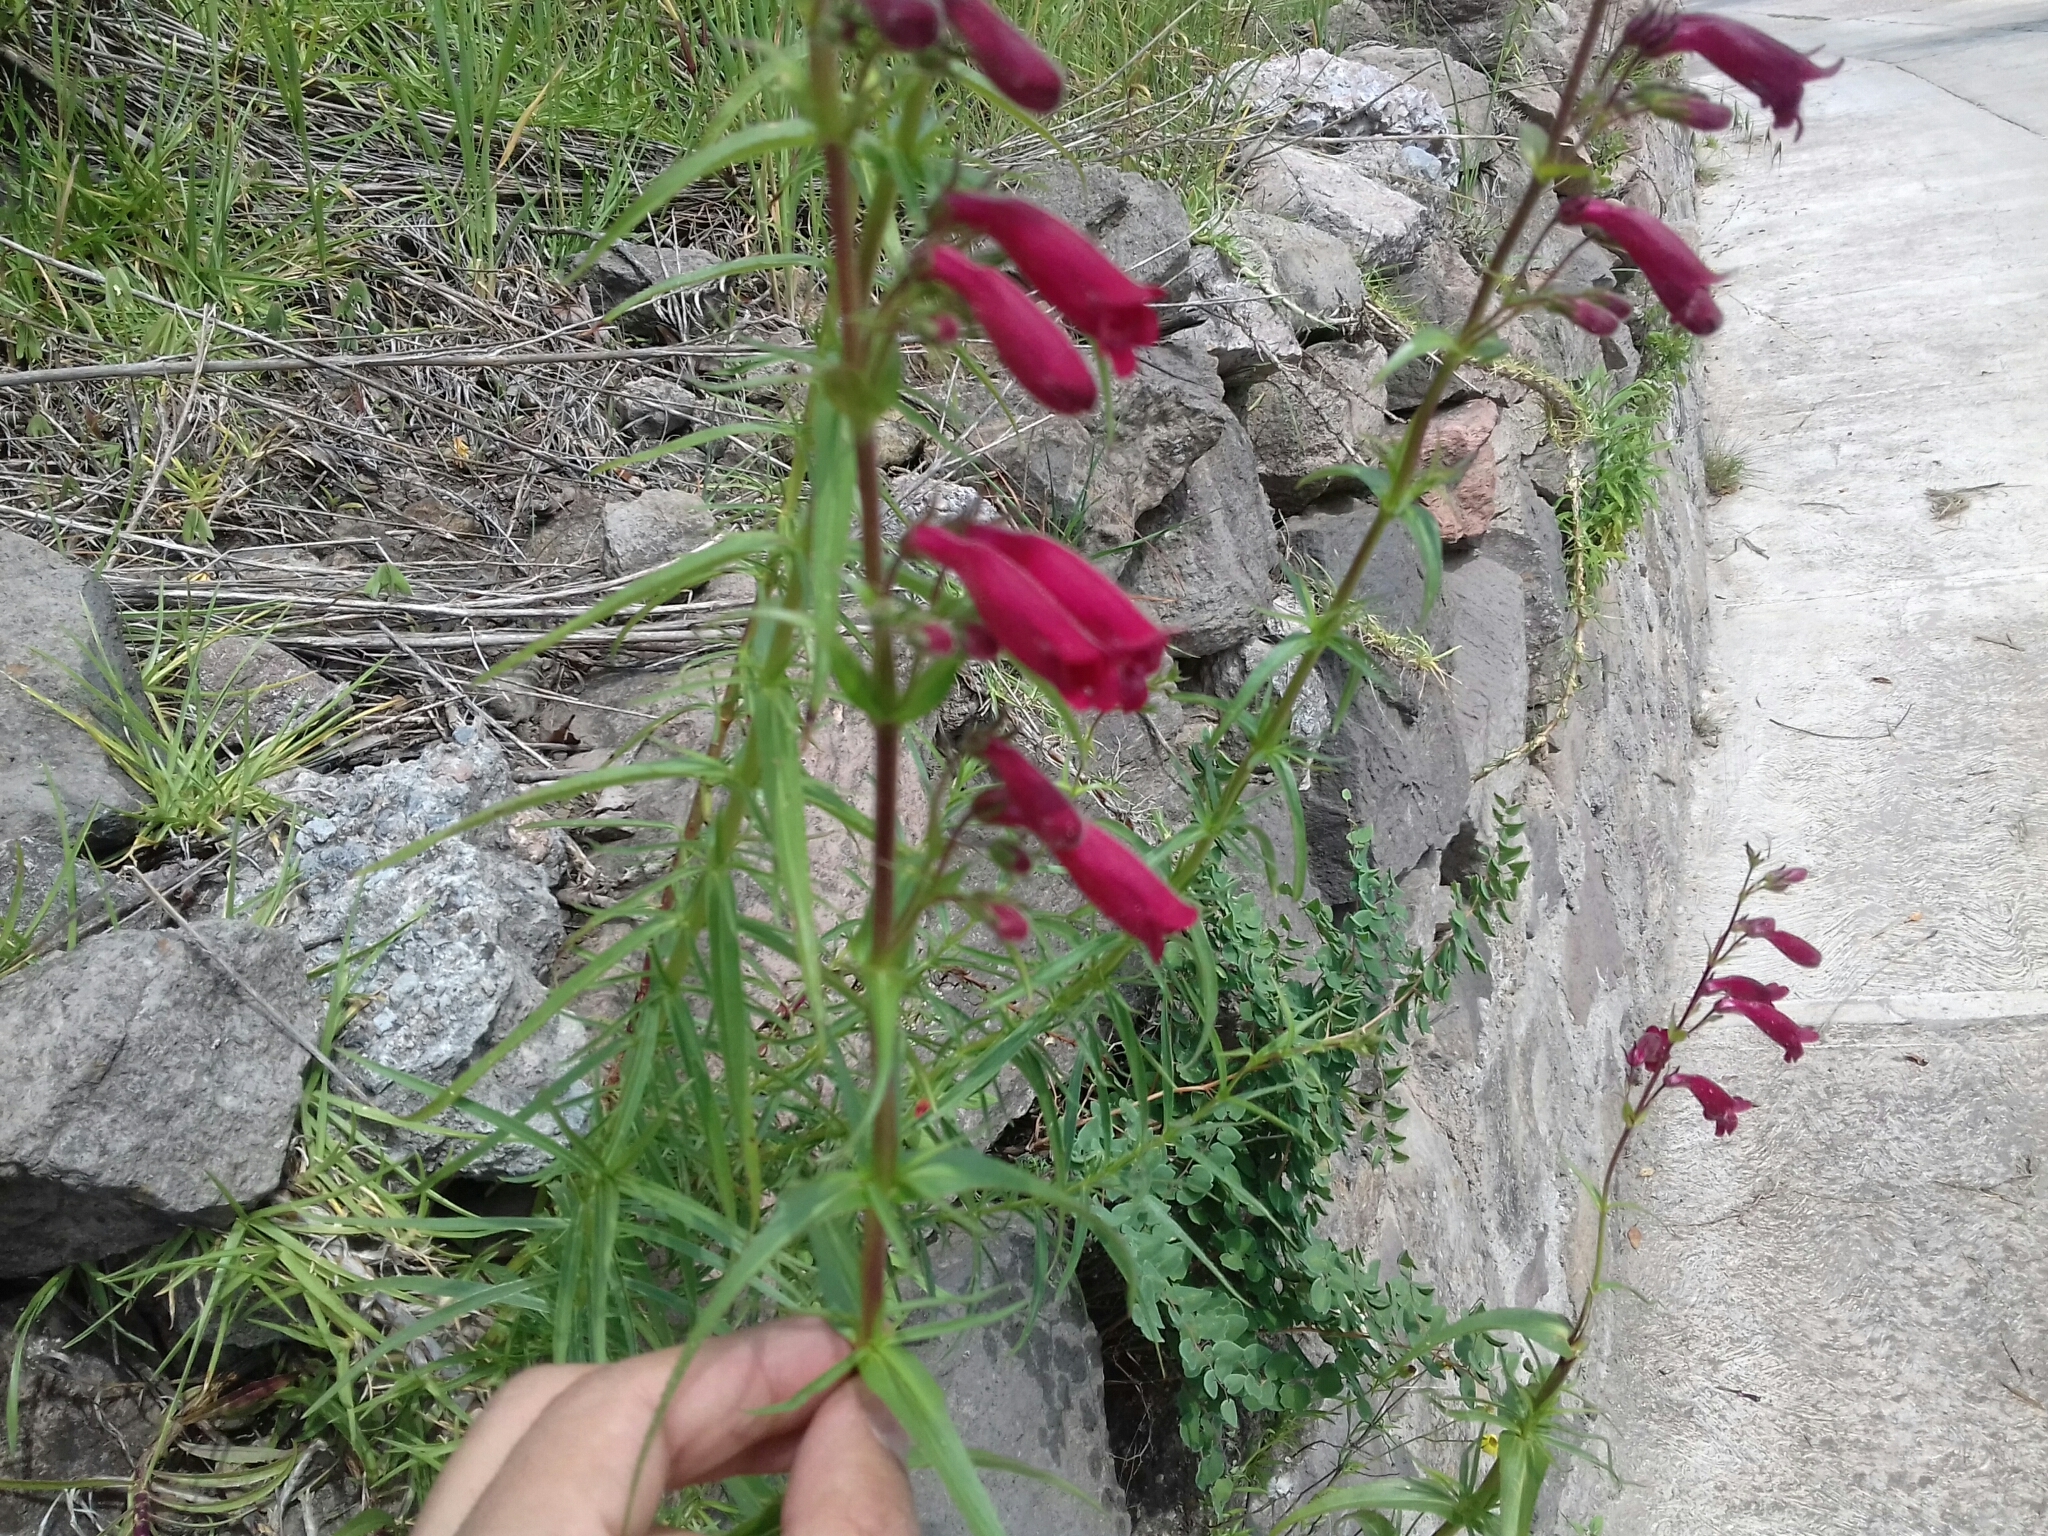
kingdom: Plantae
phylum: Tracheophyta
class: Magnoliopsida
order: Lamiales
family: Plantaginaceae
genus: Penstemon
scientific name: Penstemon roseus
